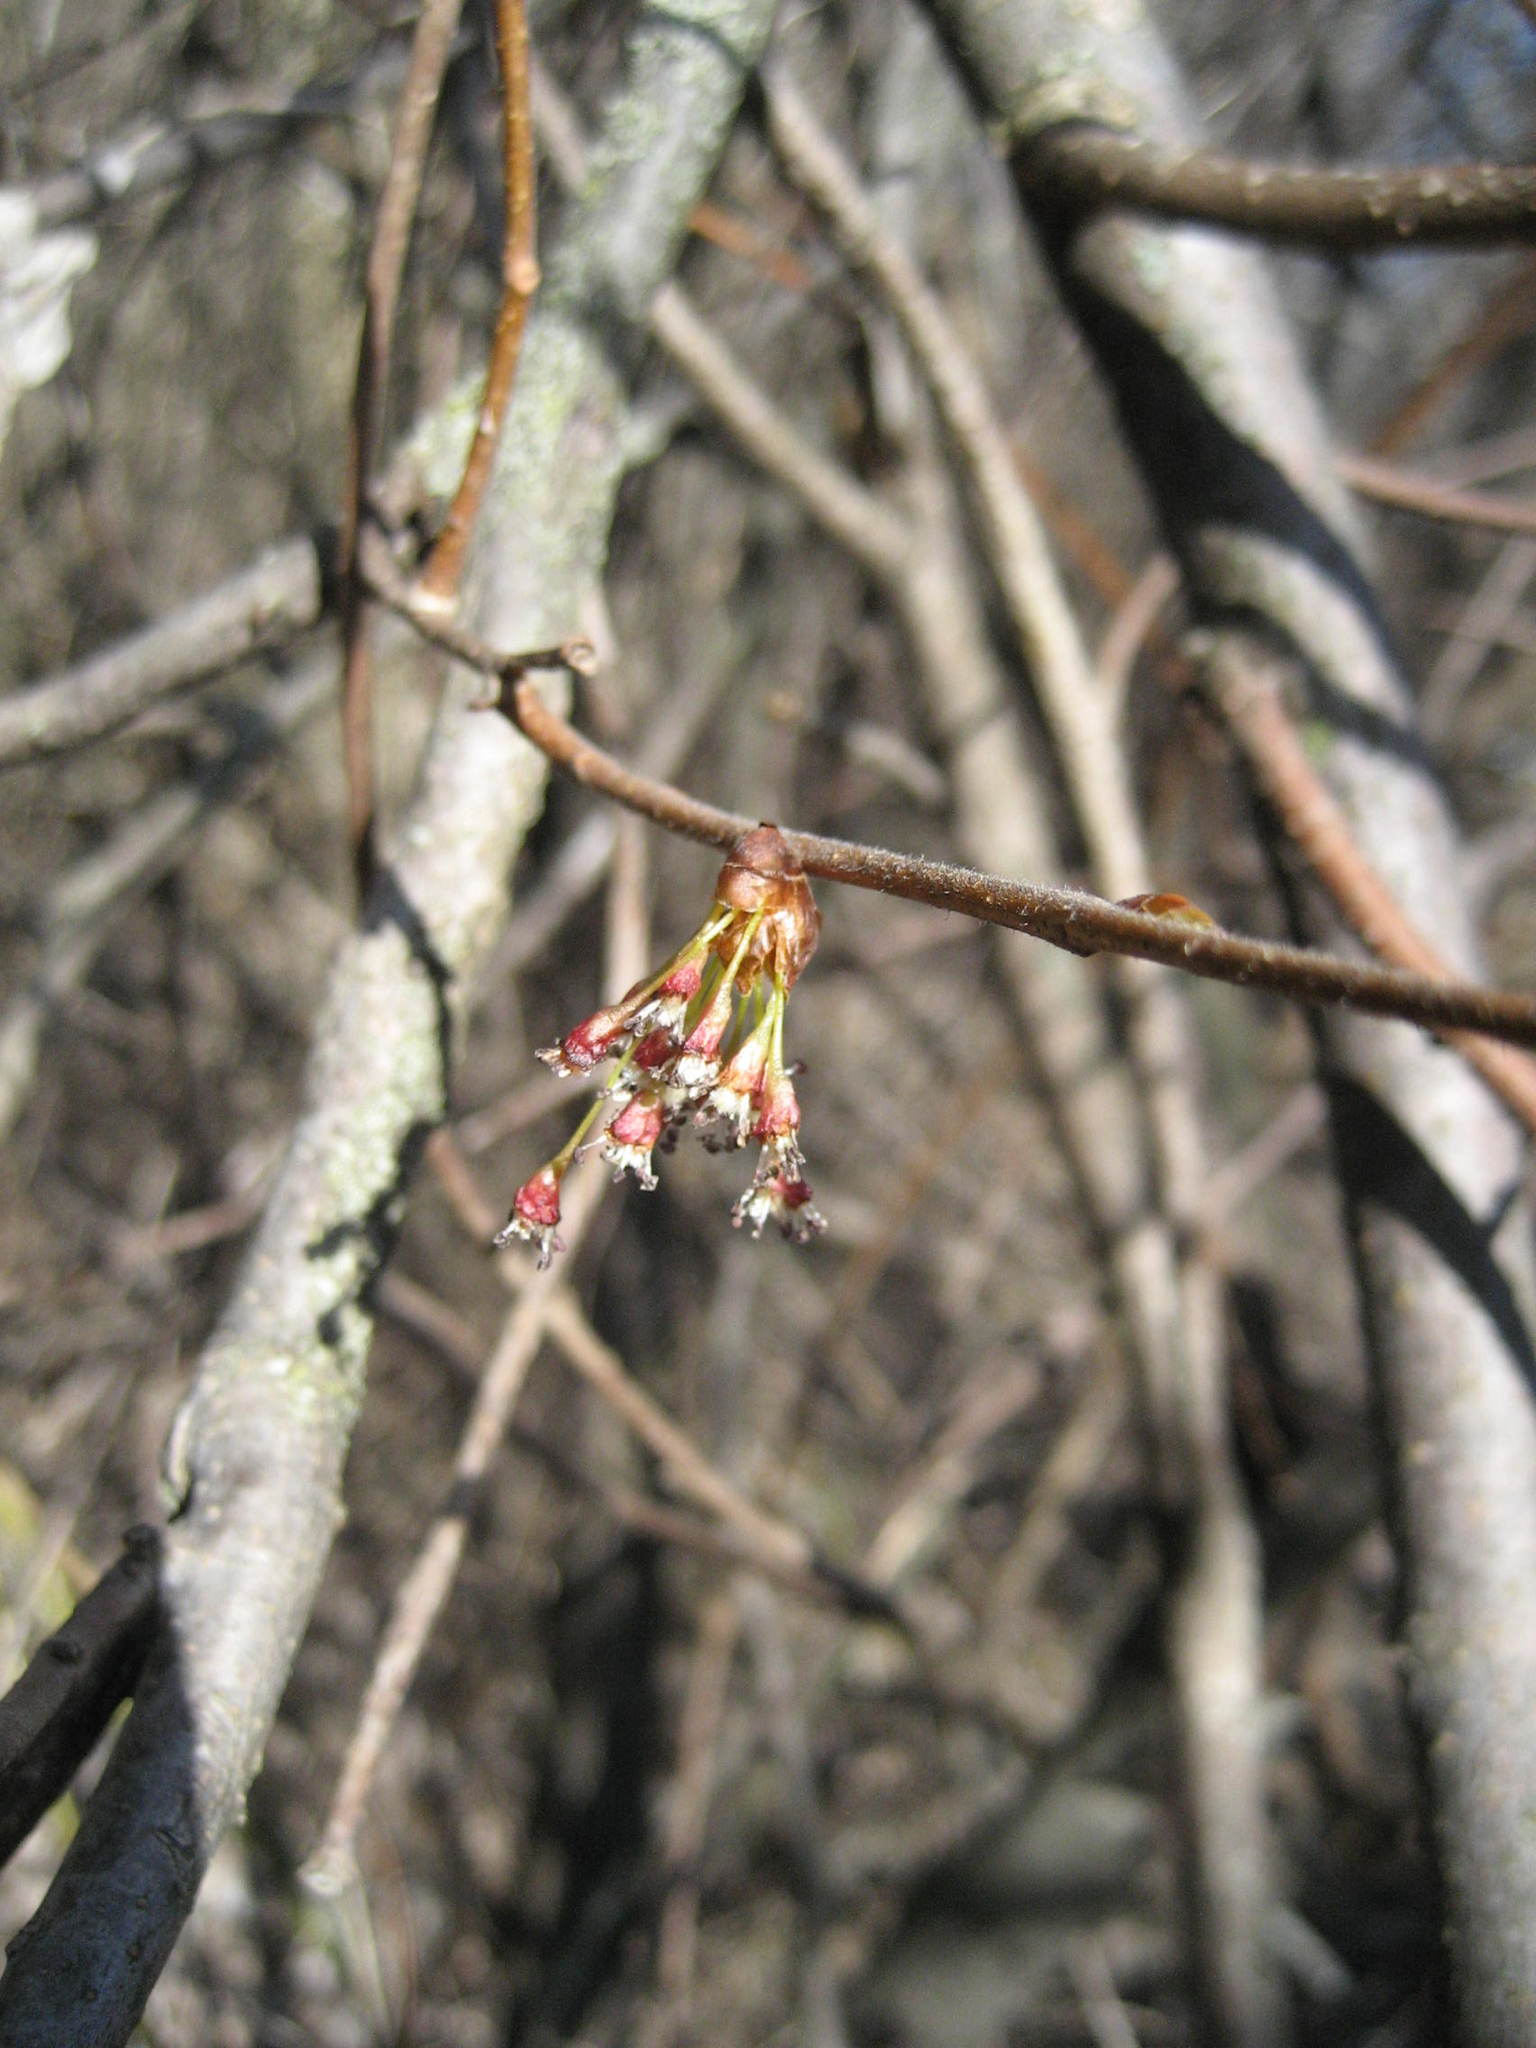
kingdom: Plantae
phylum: Tracheophyta
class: Magnoliopsida
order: Rosales
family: Ulmaceae
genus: Ulmus
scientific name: Ulmus americana
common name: American elm
